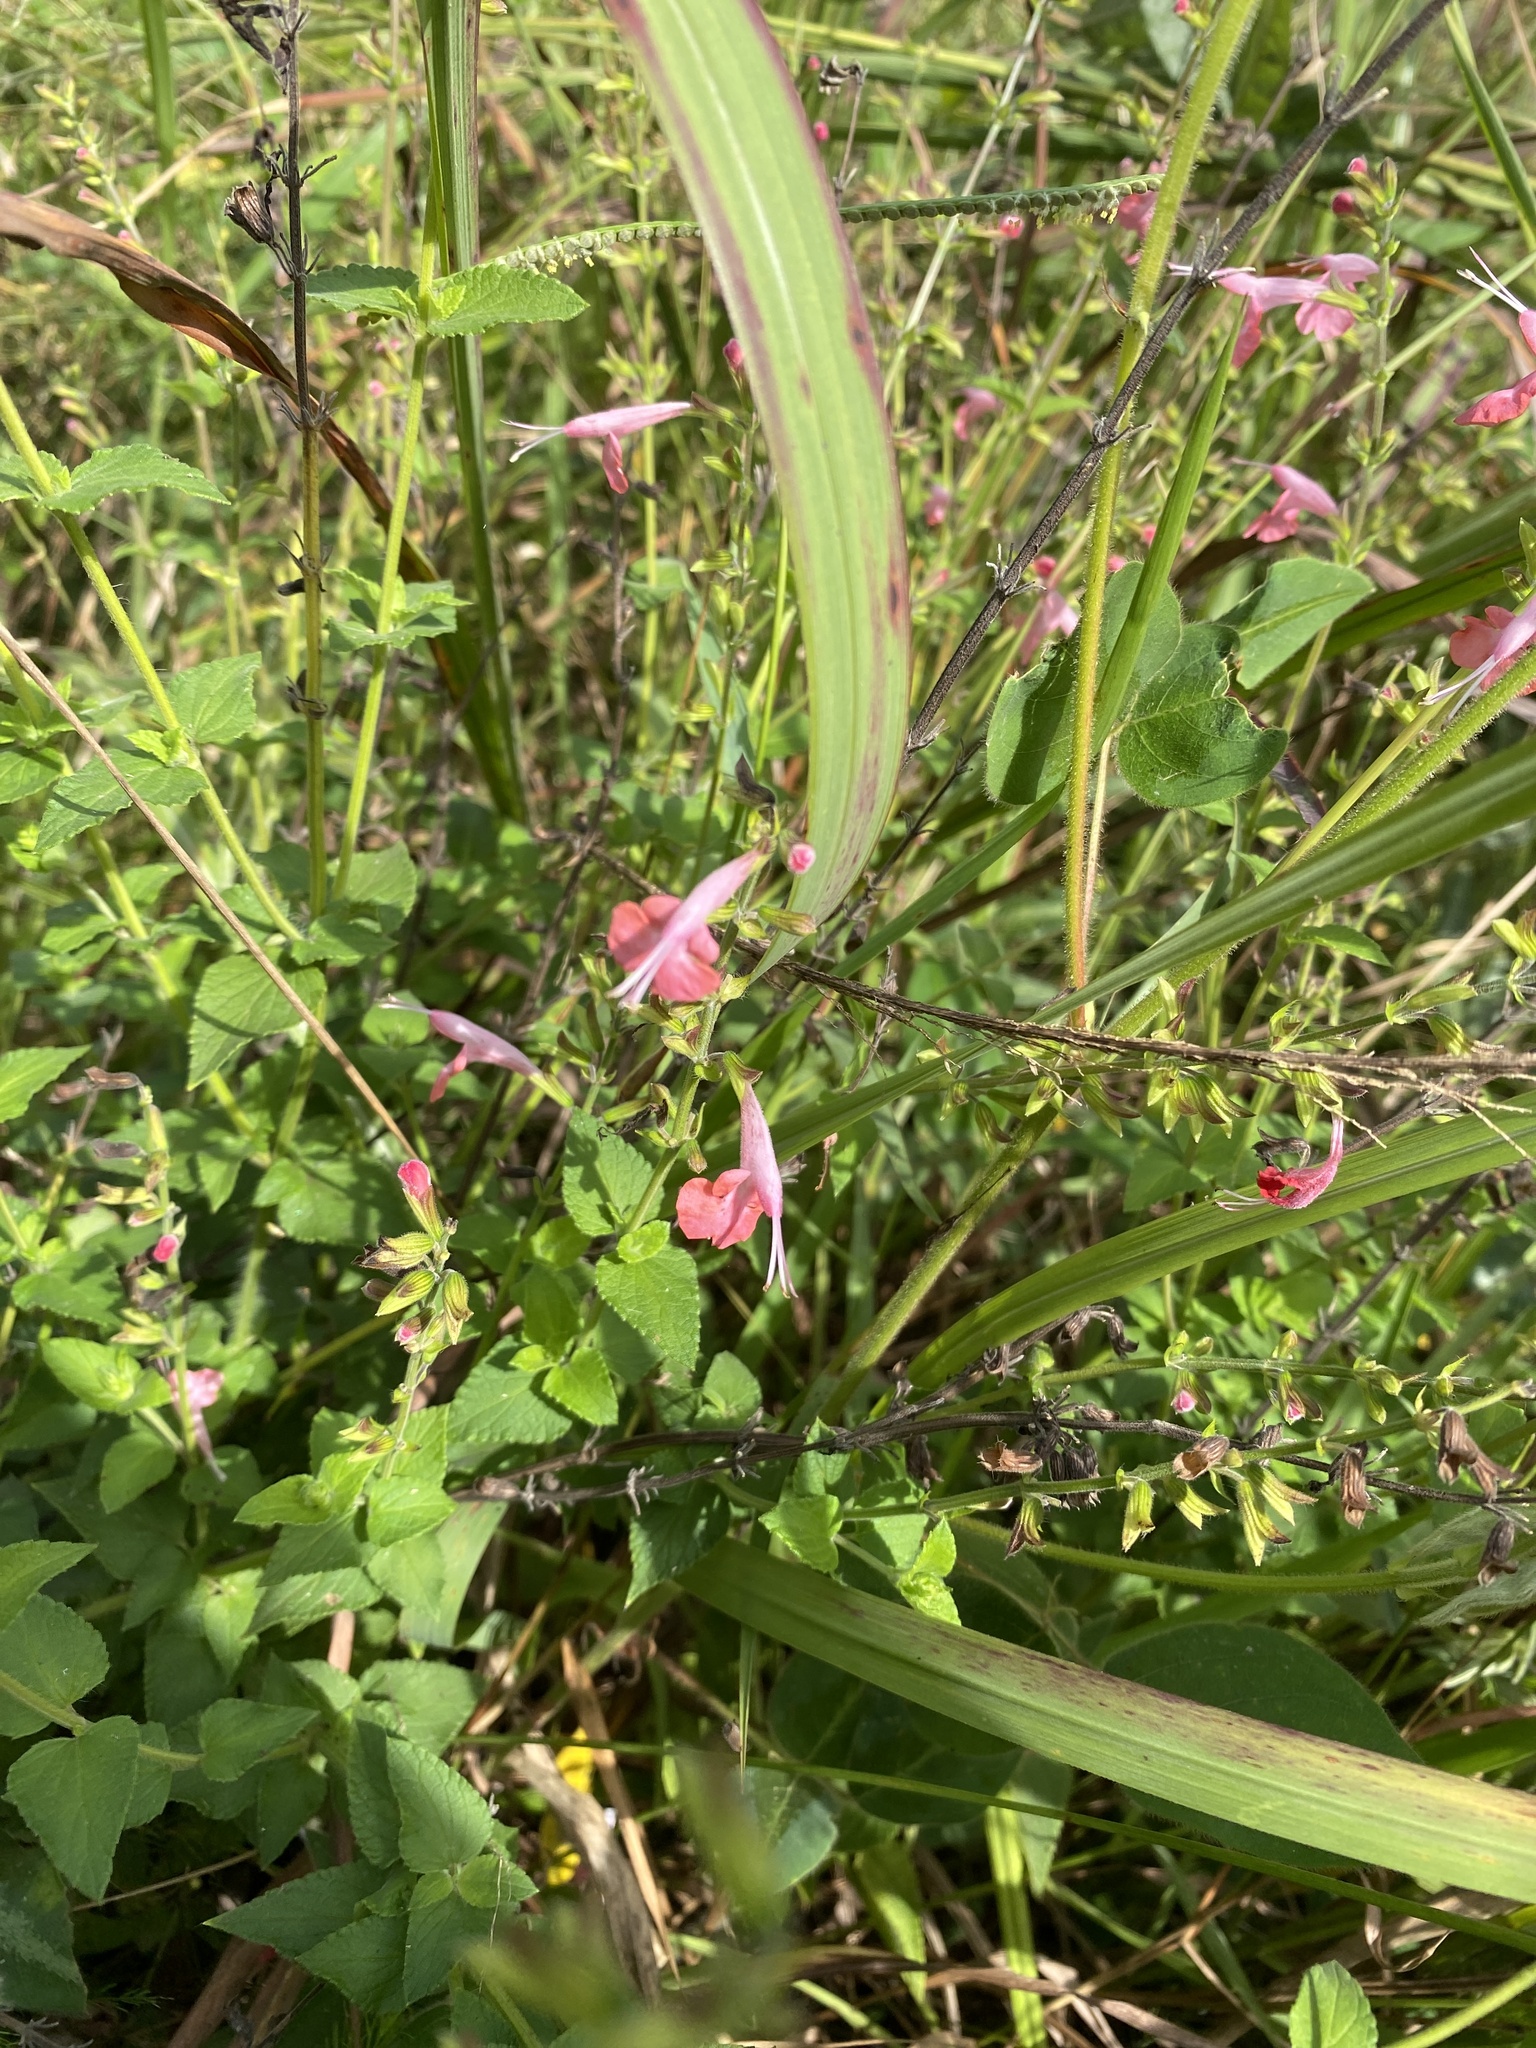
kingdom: Plantae
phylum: Tracheophyta
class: Magnoliopsida
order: Lamiales
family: Lamiaceae
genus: Salvia
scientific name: Salvia coccinea
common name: Blood sage
